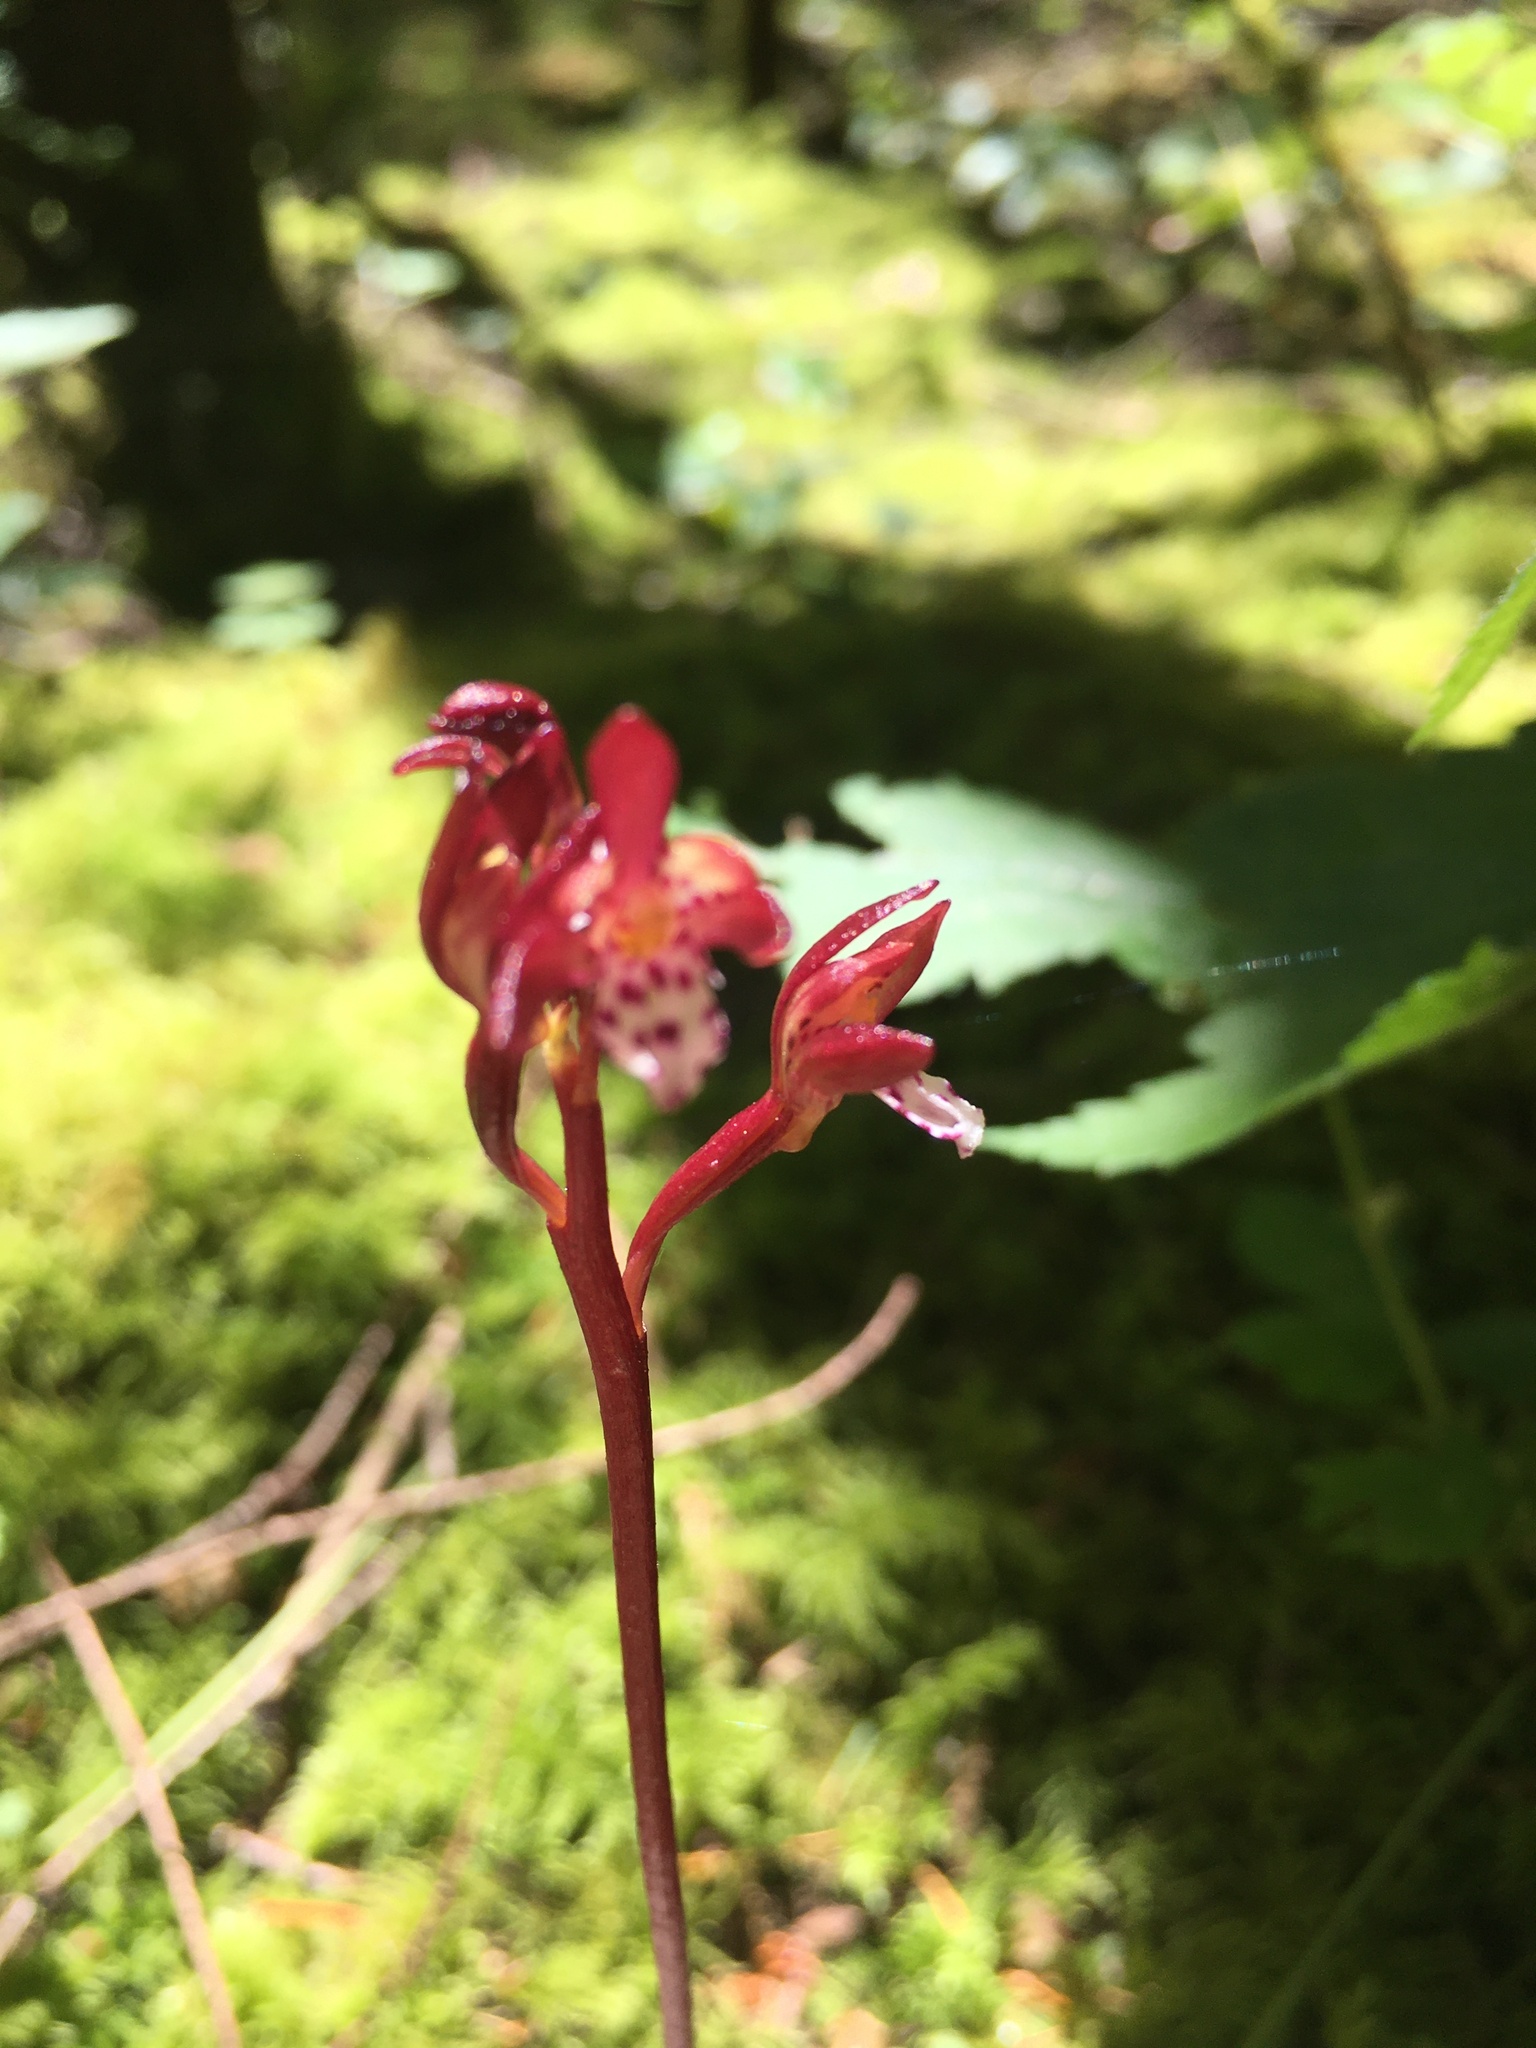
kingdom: Plantae
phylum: Tracheophyta
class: Liliopsida
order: Asparagales
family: Orchidaceae
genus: Corallorhiza
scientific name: Corallorhiza maculata
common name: Spotted coralroot
